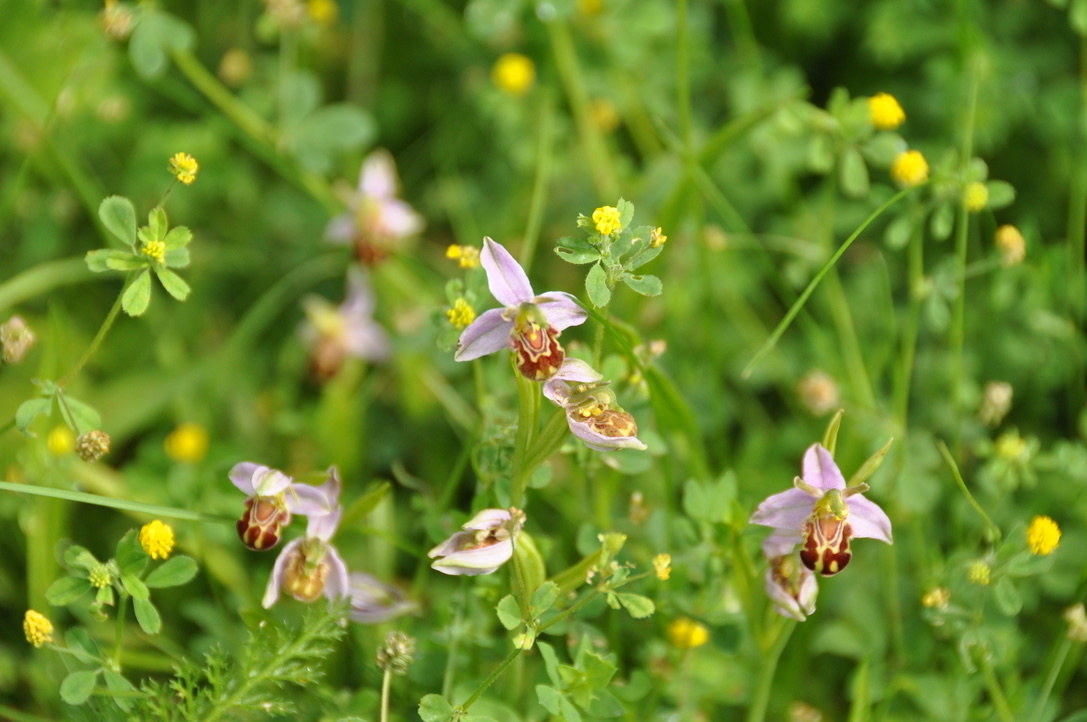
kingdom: Plantae
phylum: Tracheophyta
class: Liliopsida
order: Asparagales
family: Orchidaceae
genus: Ophrys
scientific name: Ophrys apifera
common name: Bee orchid
